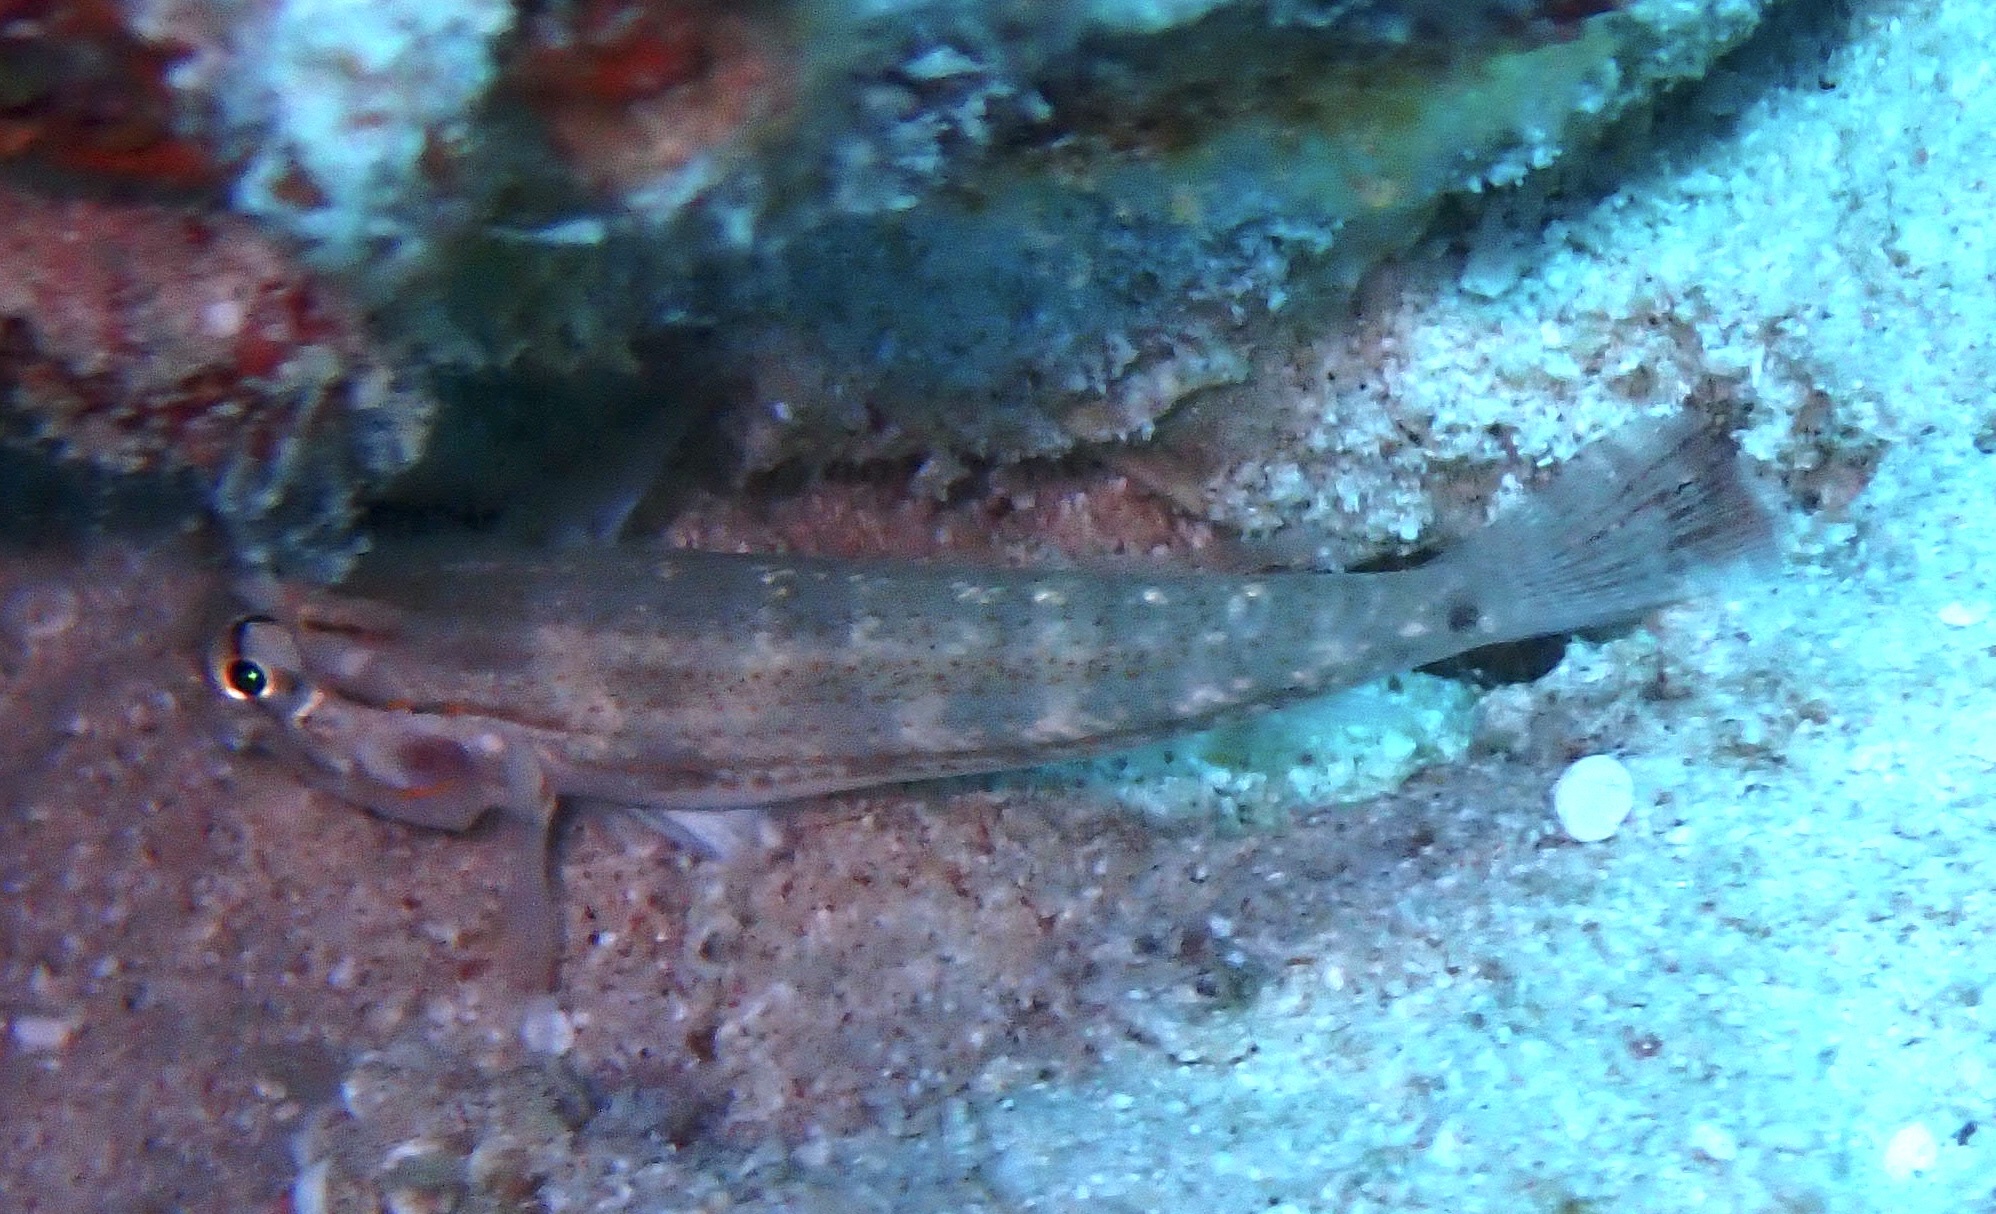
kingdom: Animalia
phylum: Chordata
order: Perciformes
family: Gobiidae
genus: Gnatholepis
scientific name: Gnatholepis caudimaculata
